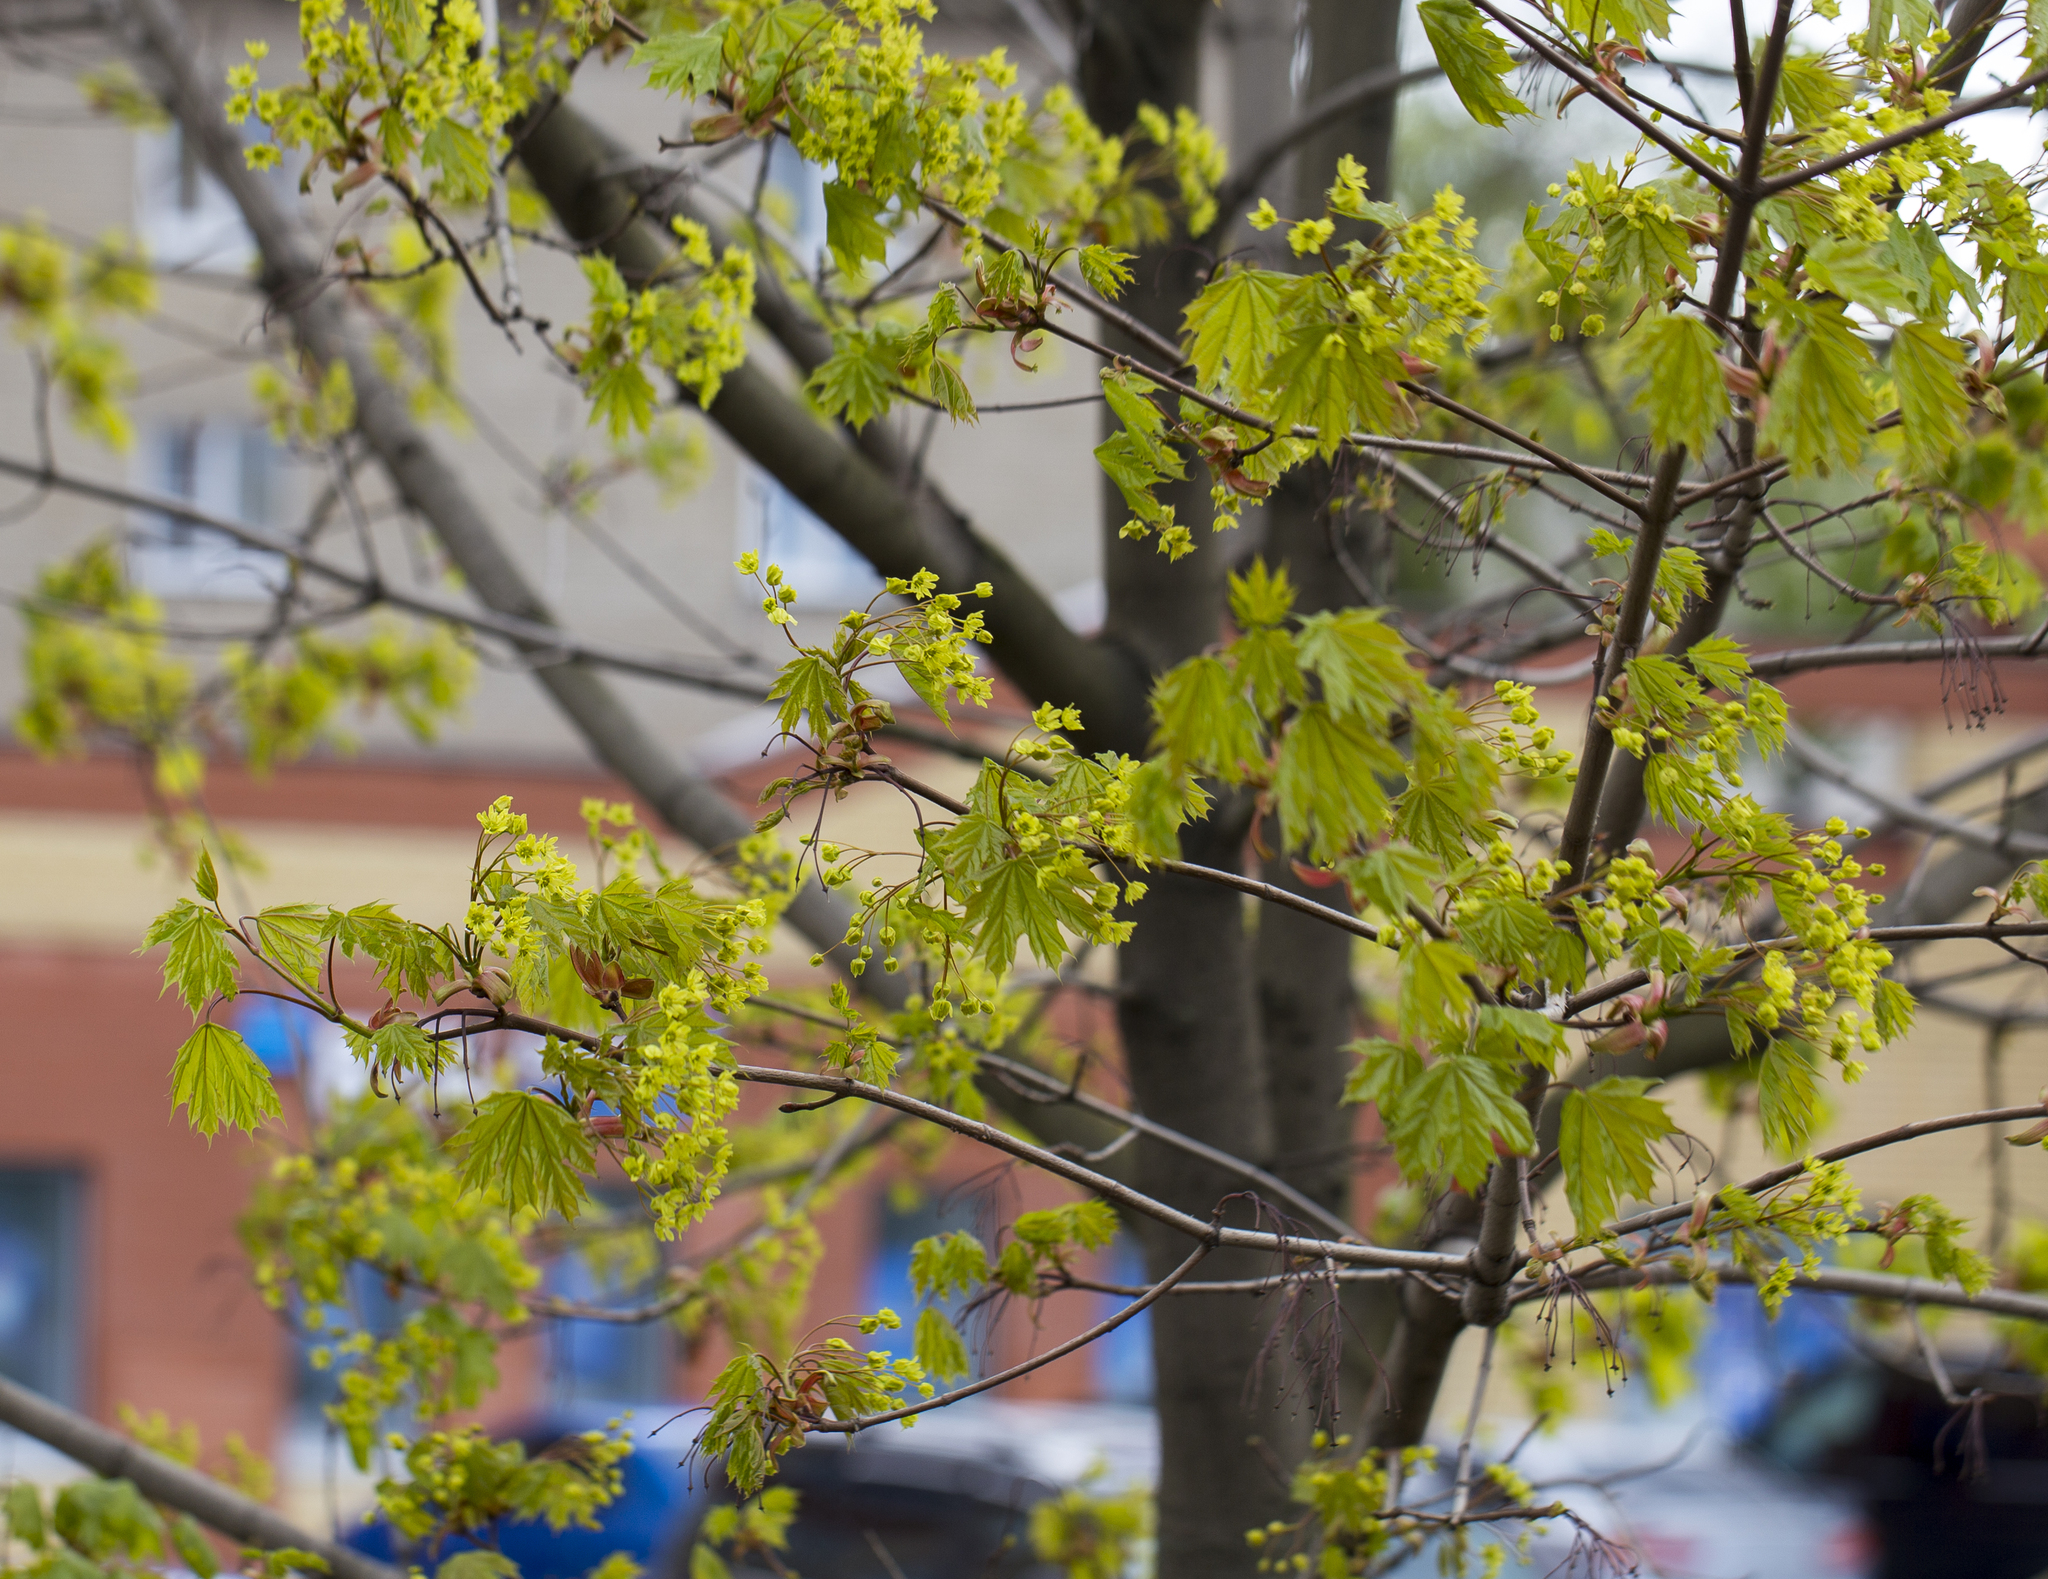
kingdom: Plantae
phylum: Tracheophyta
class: Magnoliopsida
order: Sapindales
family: Sapindaceae
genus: Acer
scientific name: Acer platanoides
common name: Norway maple
